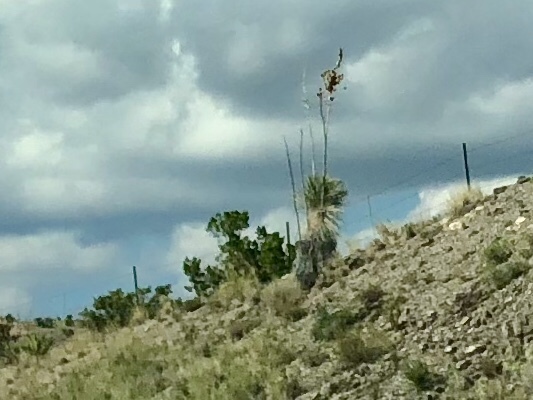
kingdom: Plantae
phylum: Tracheophyta
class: Liliopsida
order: Asparagales
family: Asparagaceae
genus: Yucca
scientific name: Yucca elata
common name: Palmella
